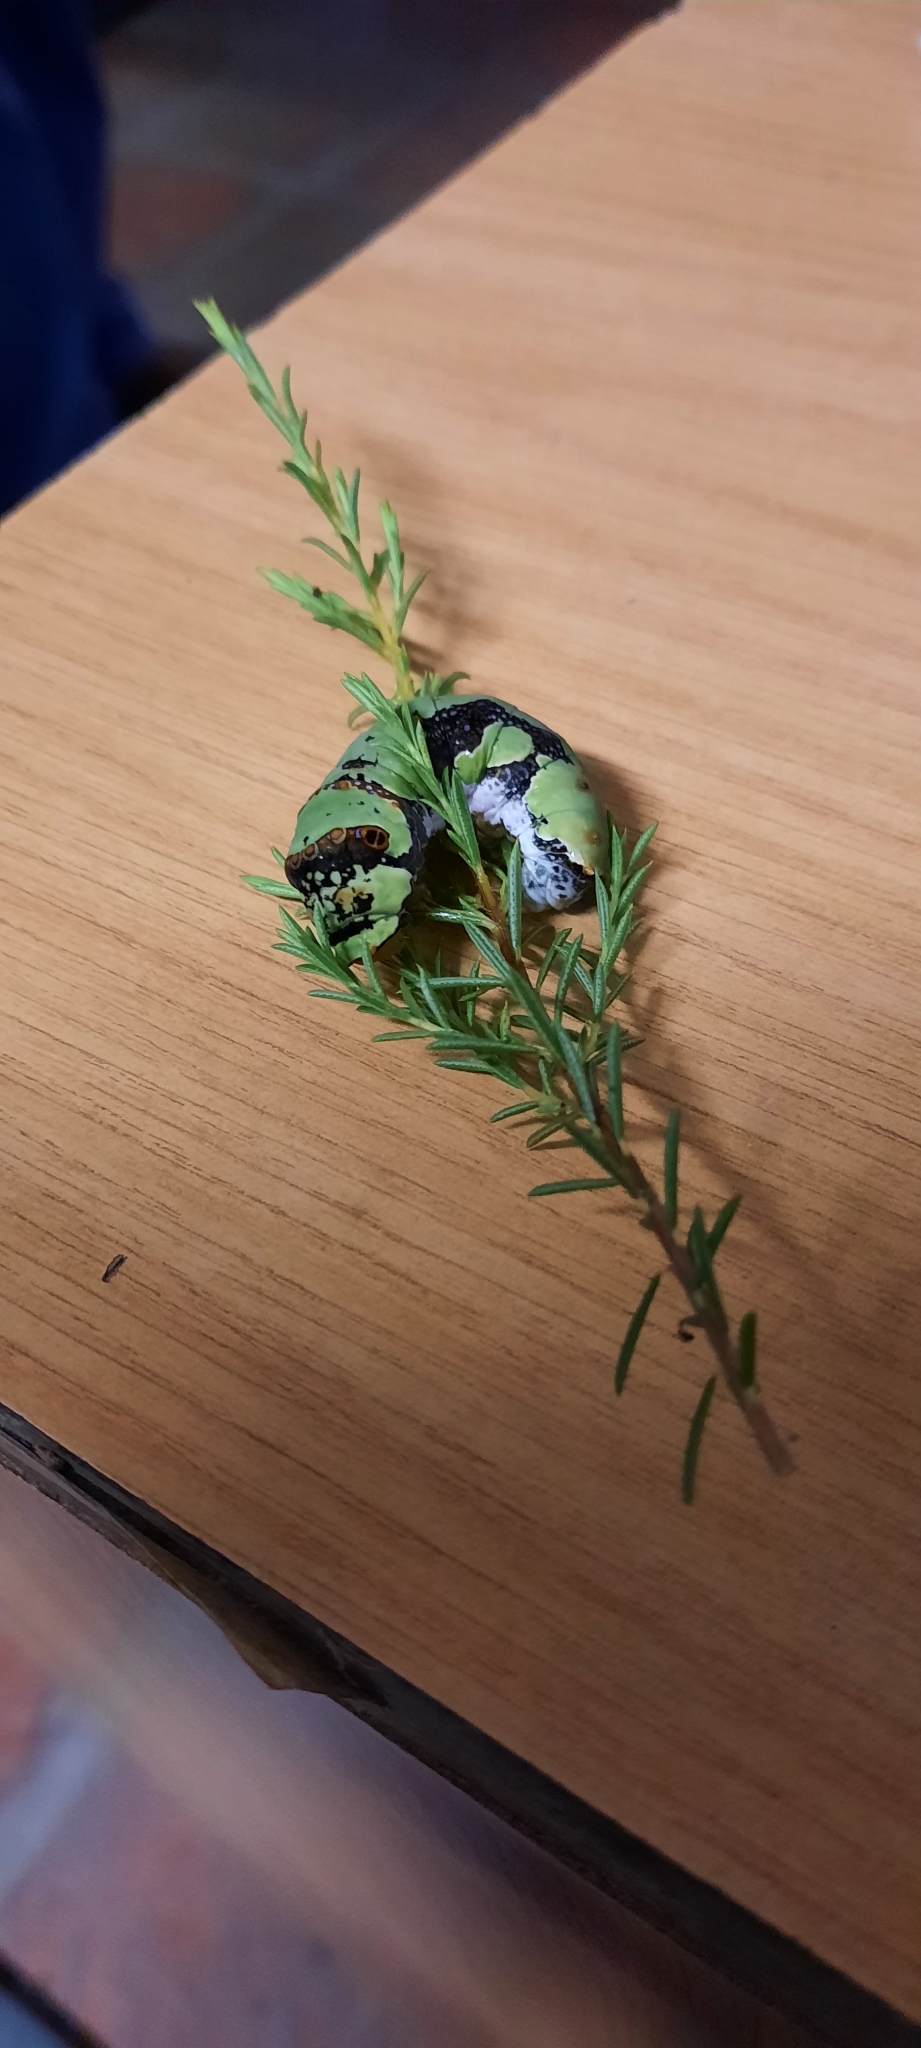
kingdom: Animalia
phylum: Arthropoda
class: Insecta
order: Lepidoptera
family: Papilionidae
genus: Papilio
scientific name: Papilio demodocus
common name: Christmas butterfly
